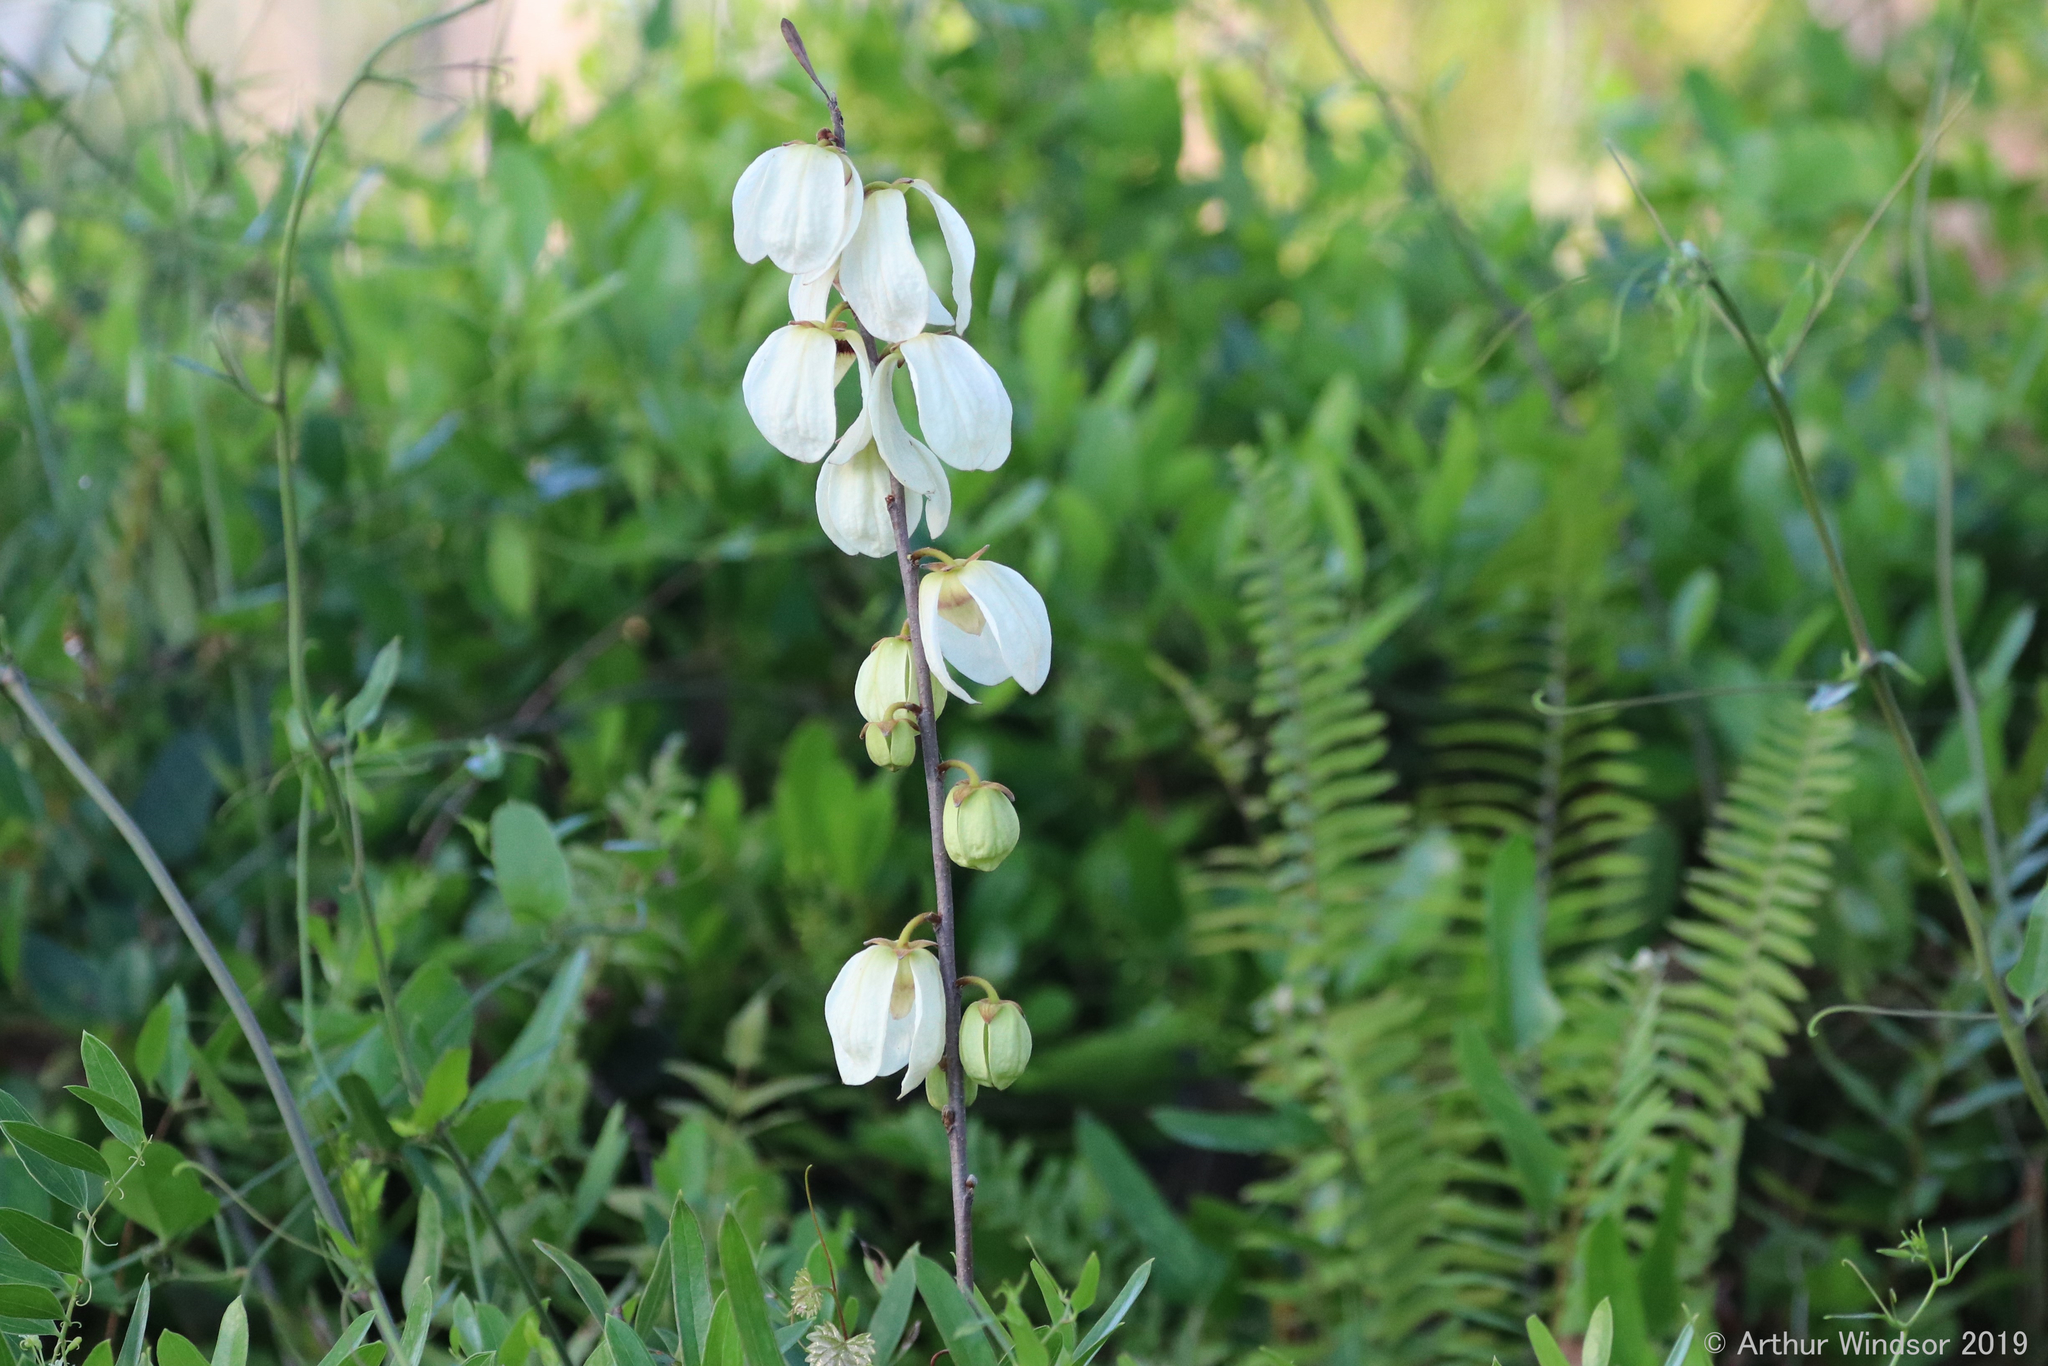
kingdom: Plantae
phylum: Tracheophyta
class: Magnoliopsida
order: Magnoliales
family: Annonaceae
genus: Asimina
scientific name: Asimina reticulata
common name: Flag pawpaw
